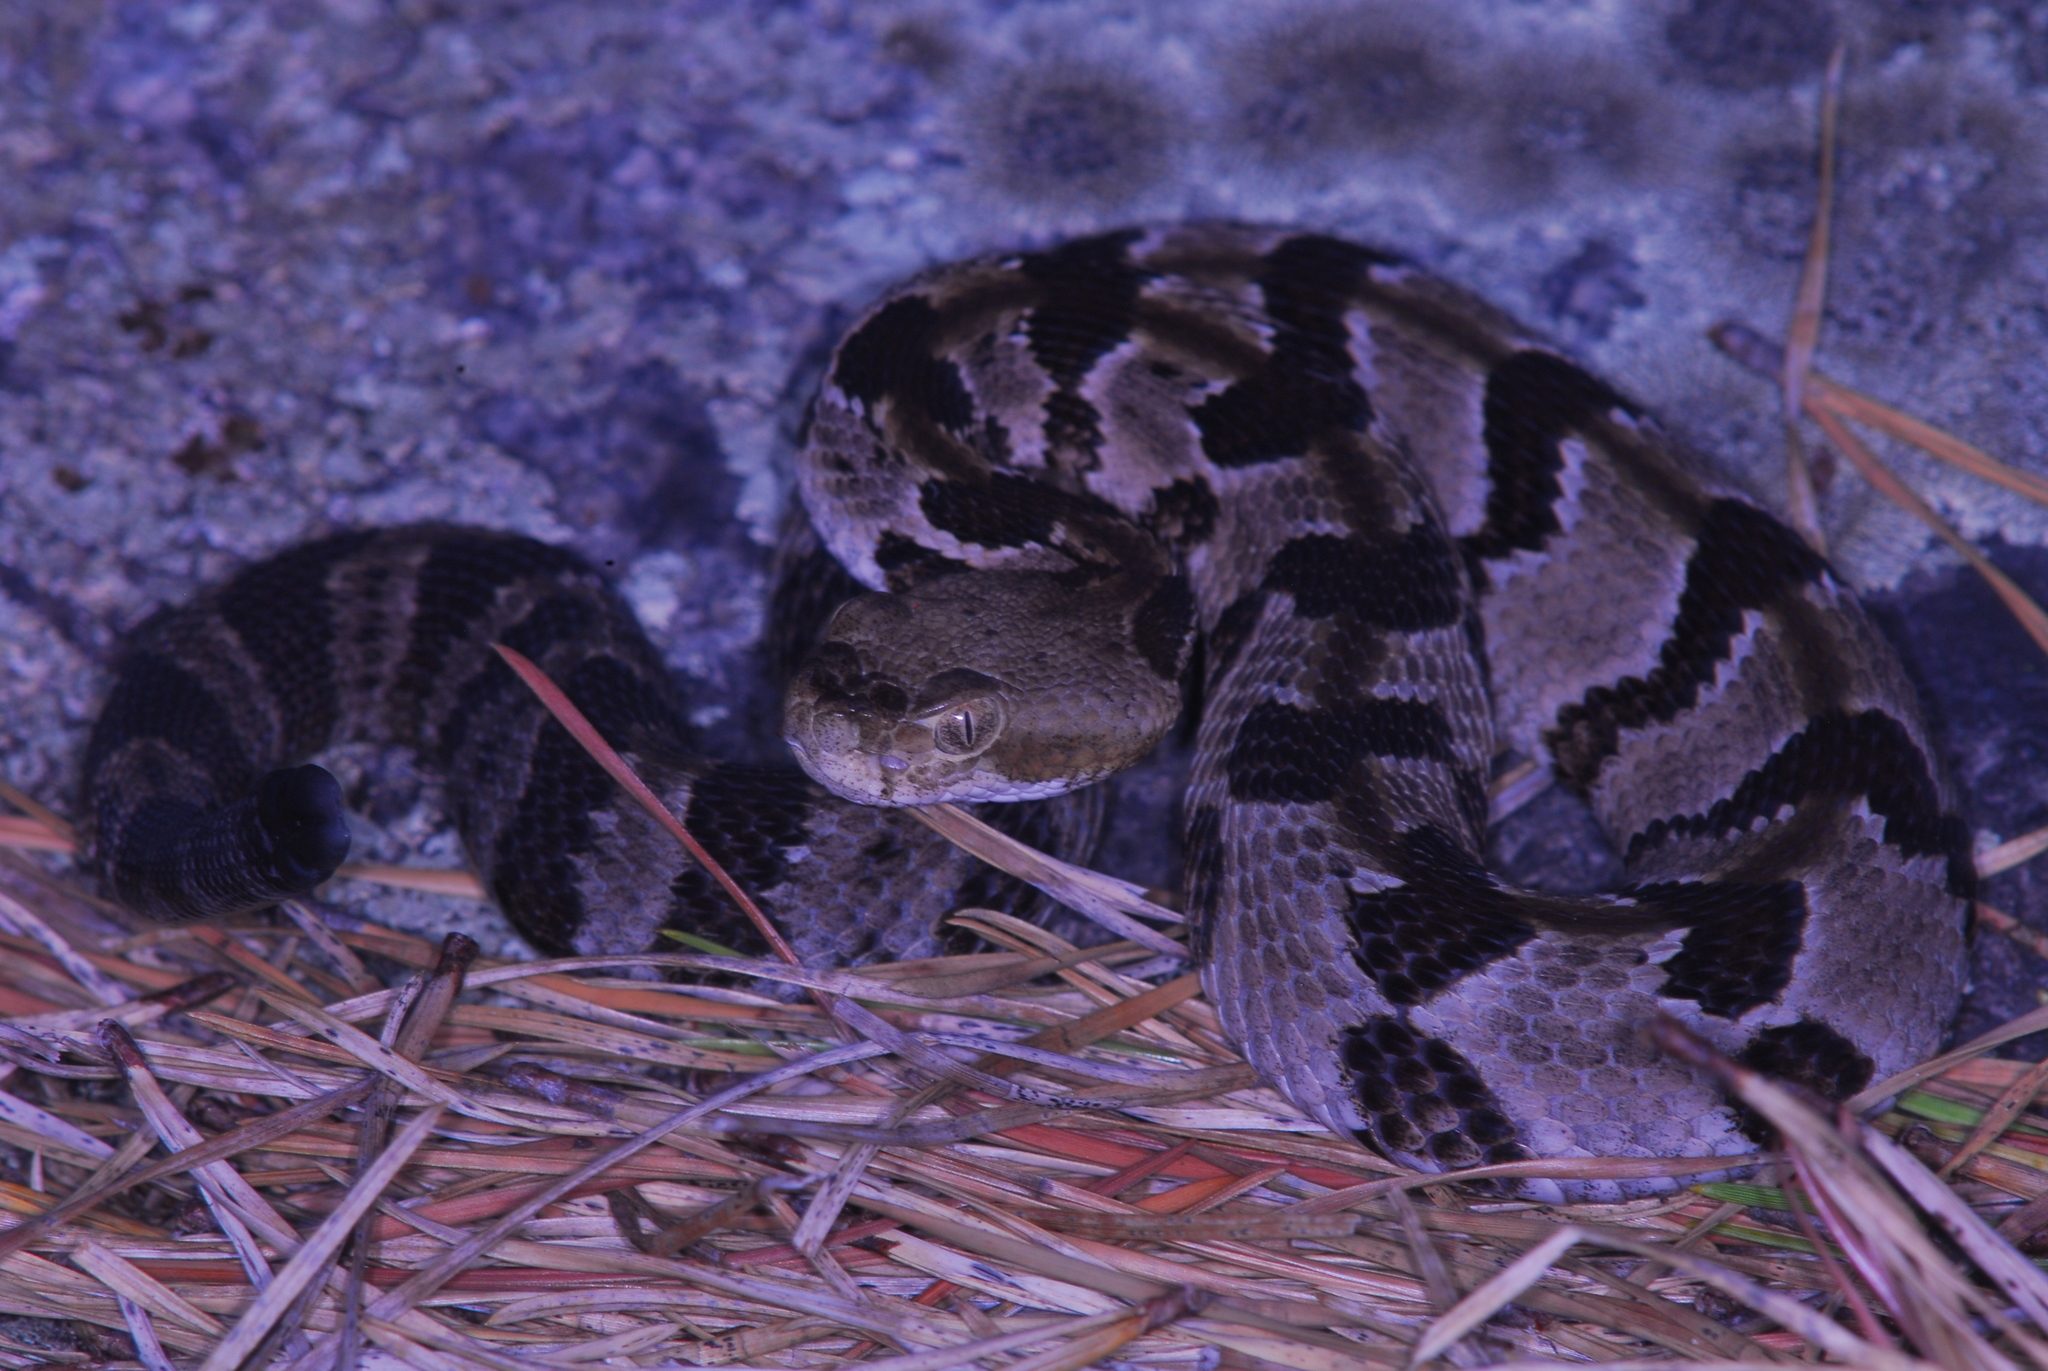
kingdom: Animalia
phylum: Chordata
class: Squamata
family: Viperidae
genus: Crotalus
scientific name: Crotalus horridus
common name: Timber rattlesnake
